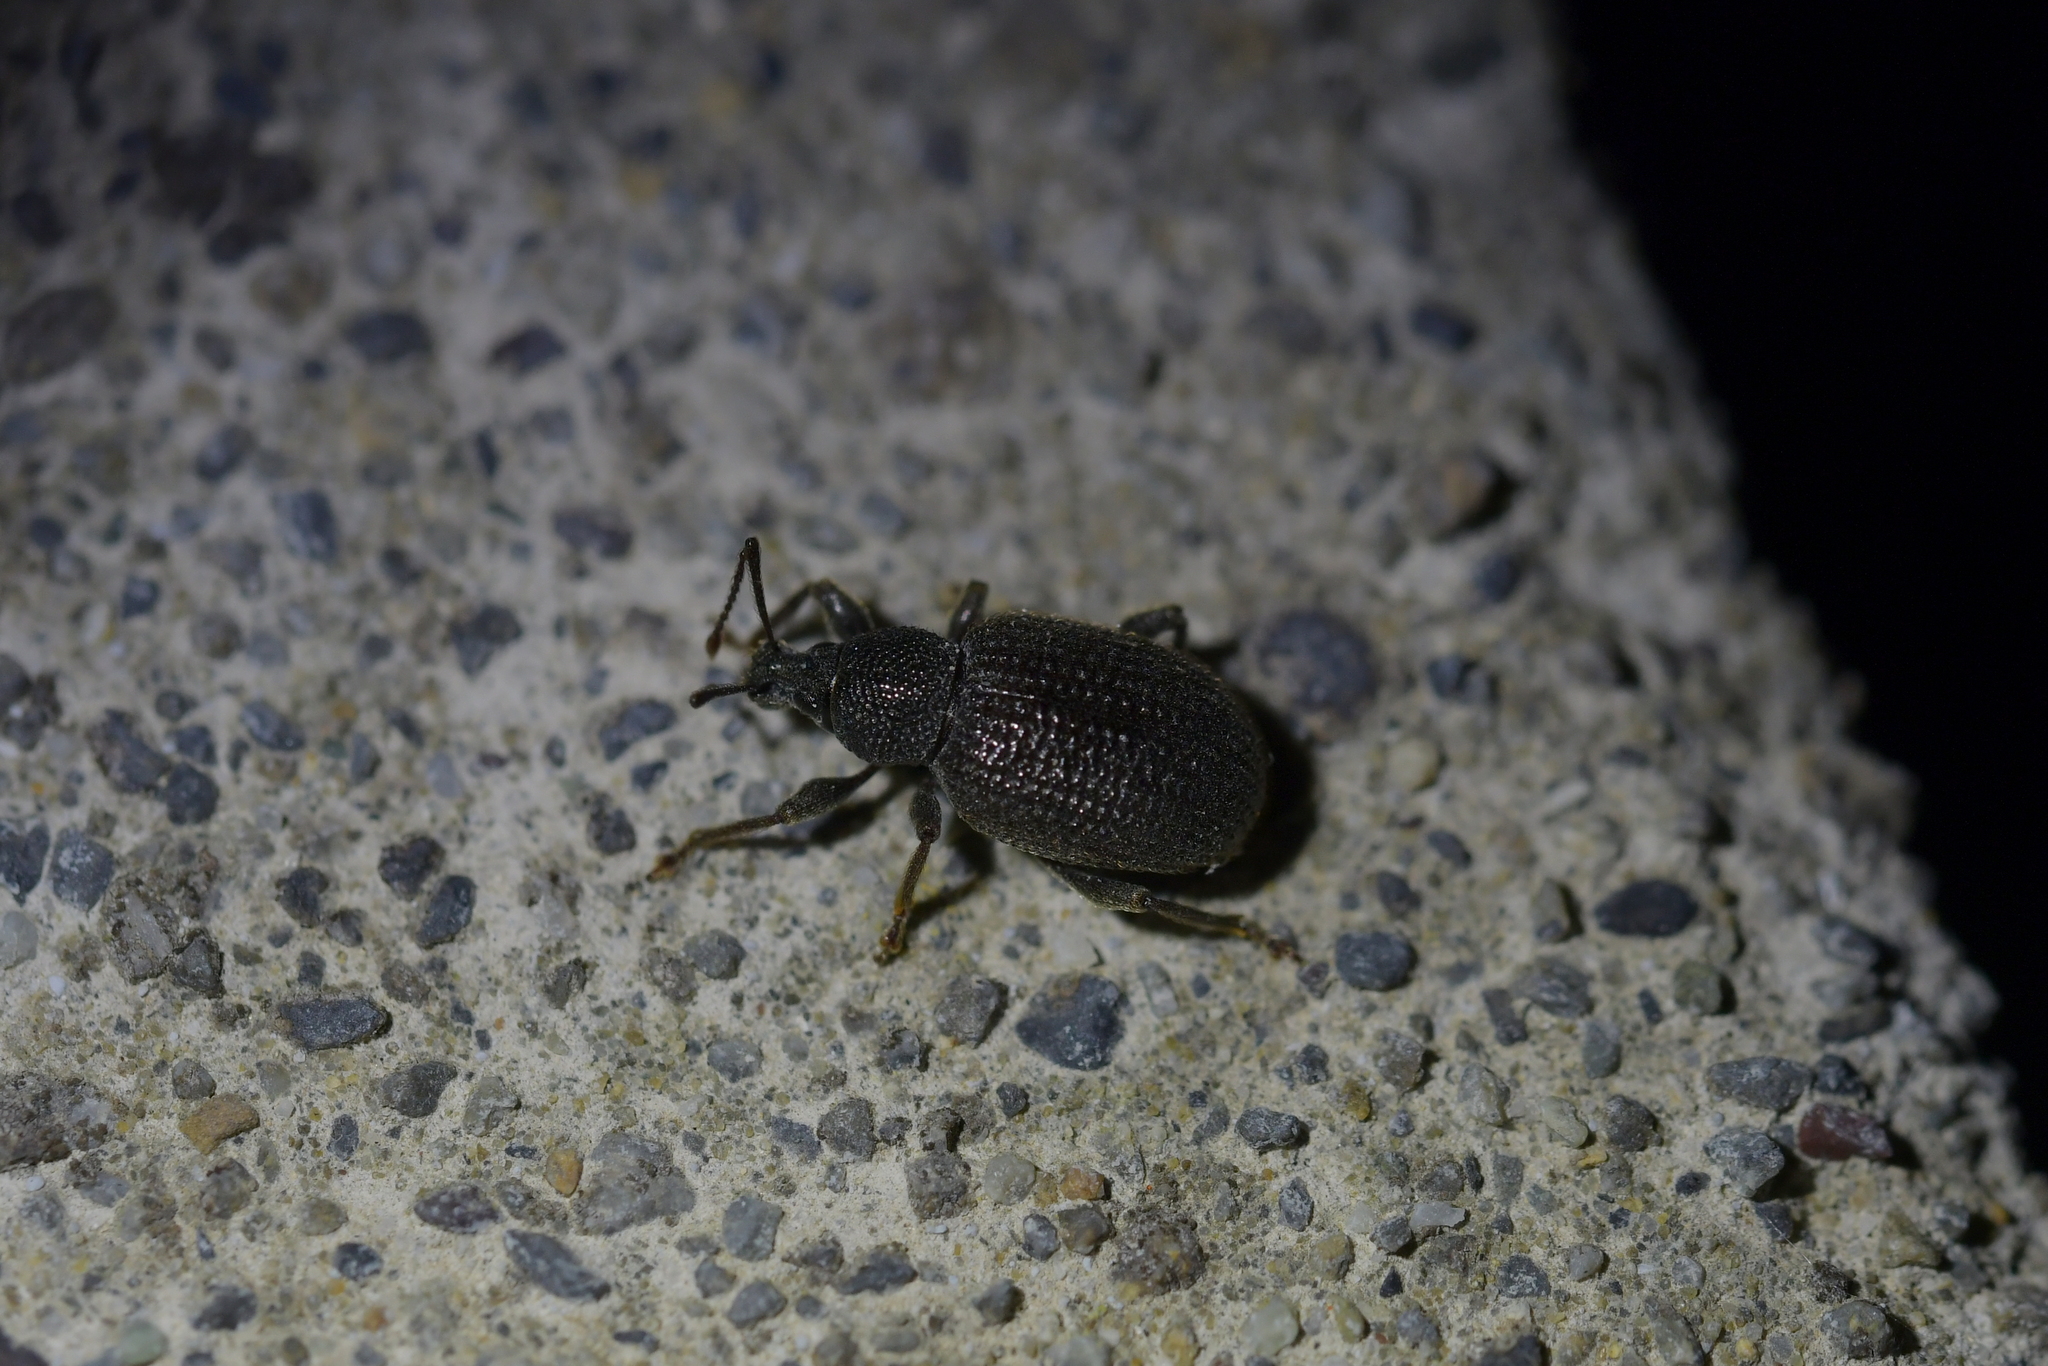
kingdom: Animalia
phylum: Arthropoda
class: Insecta
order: Coleoptera
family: Curculionidae
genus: Otiorhynchus
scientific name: Otiorhynchus rugosostriatus
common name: Weevil
